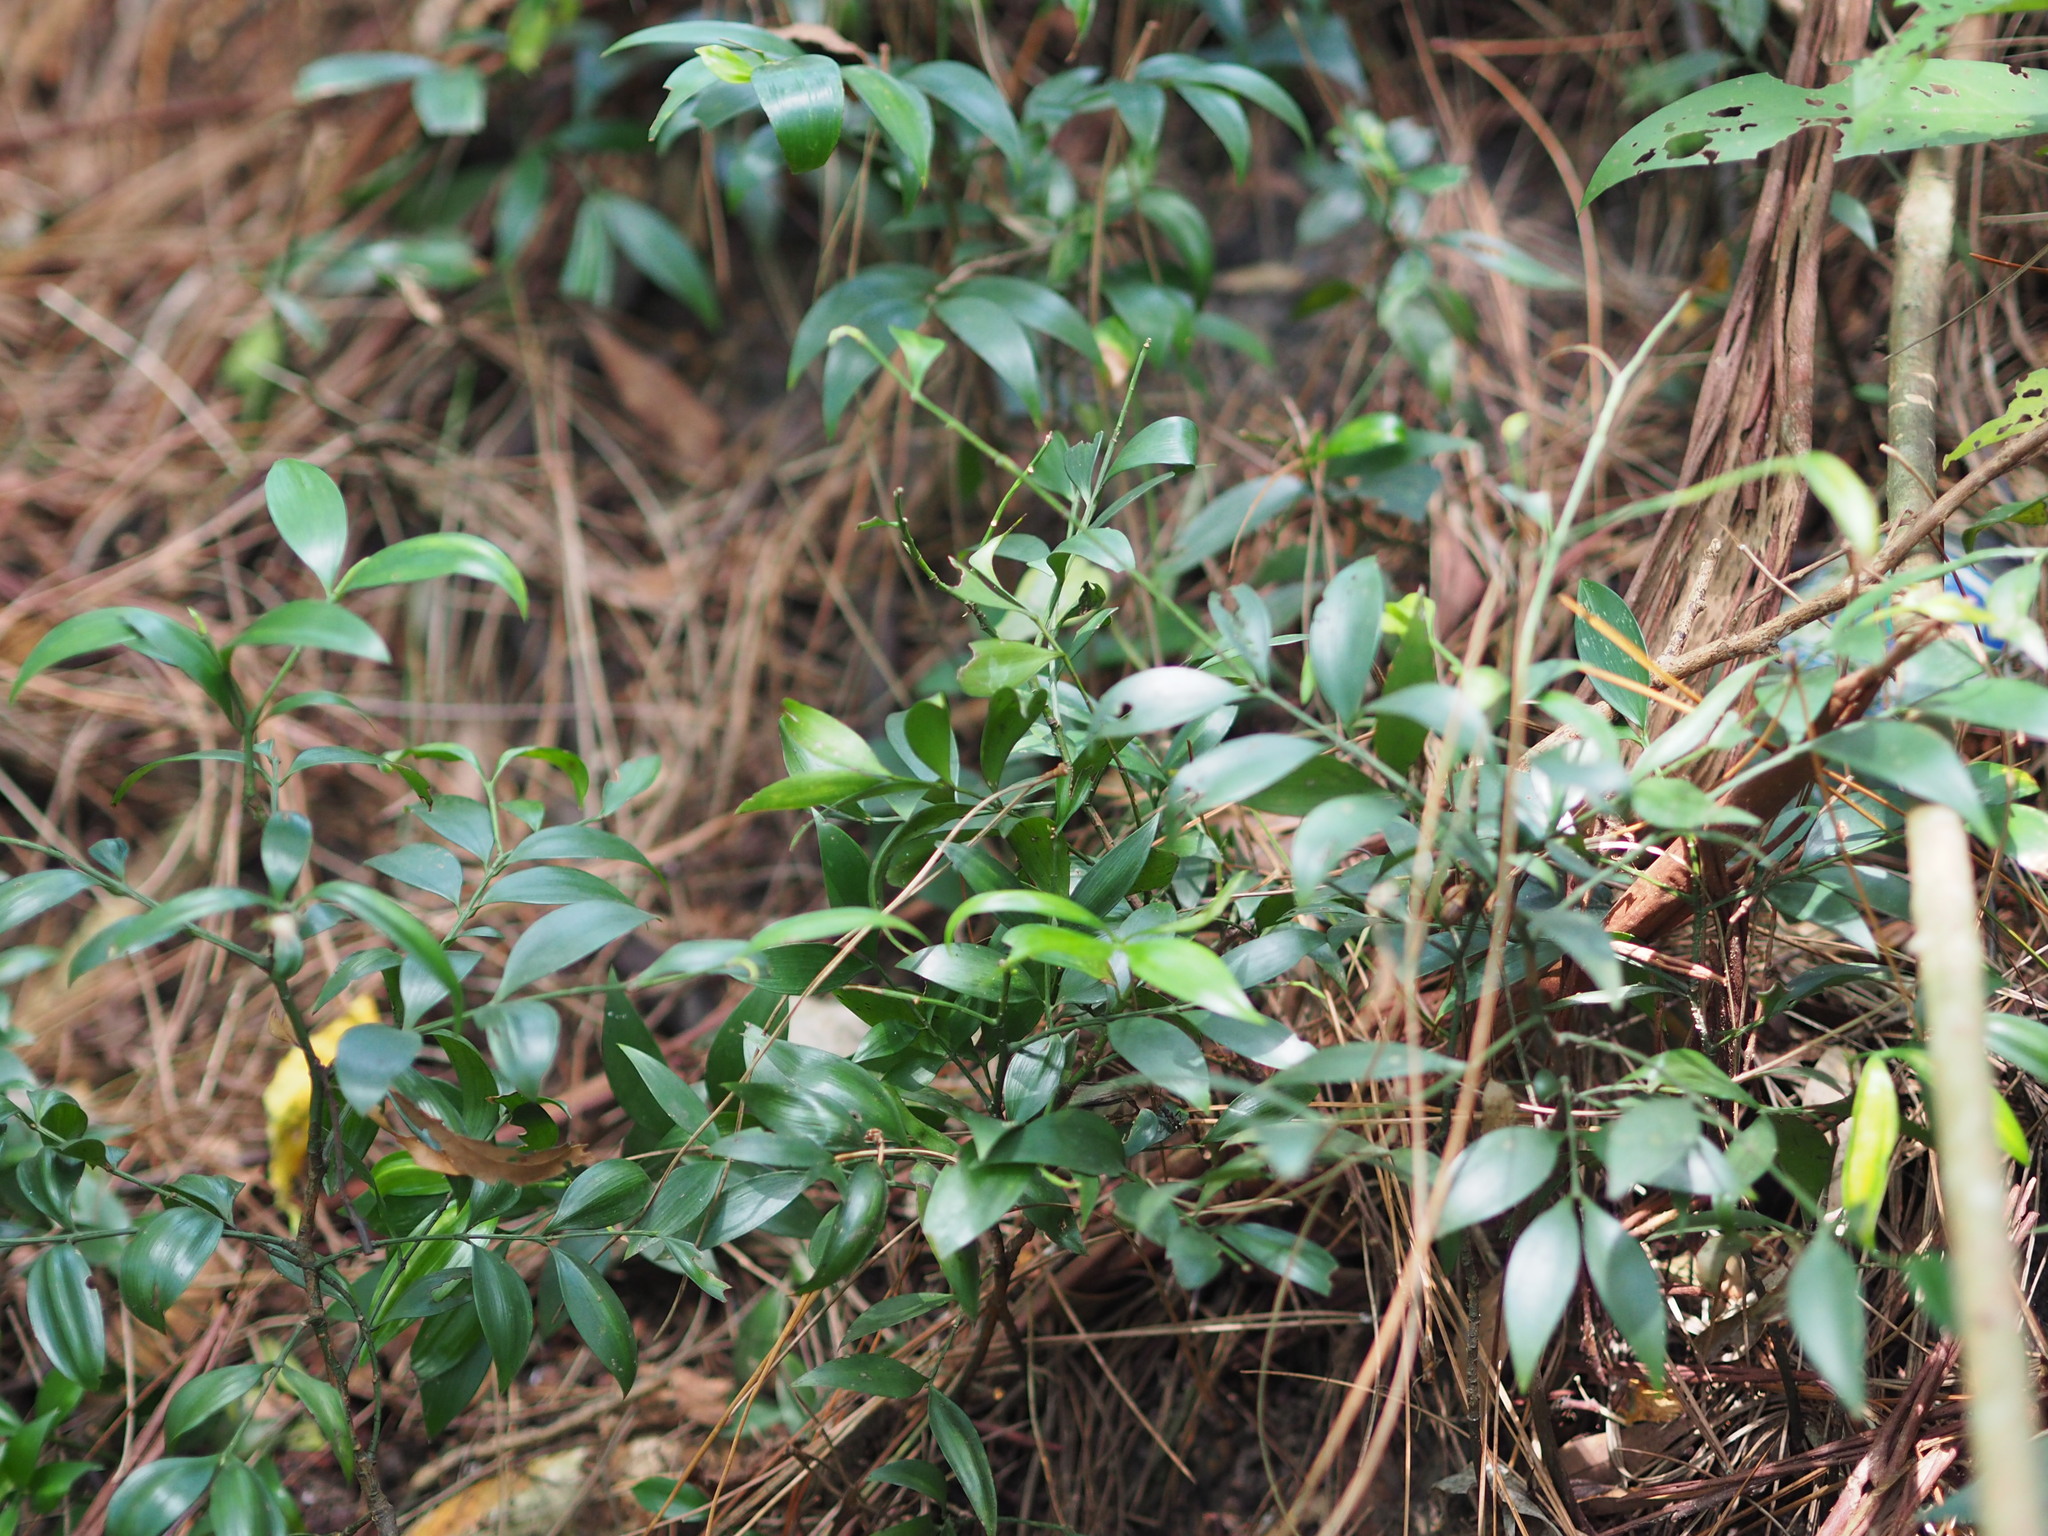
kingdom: Plantae
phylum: Tracheophyta
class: Pinopsida
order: Pinales
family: Podocarpaceae
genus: Nageia
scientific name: Nageia nagi
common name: Kaphal
